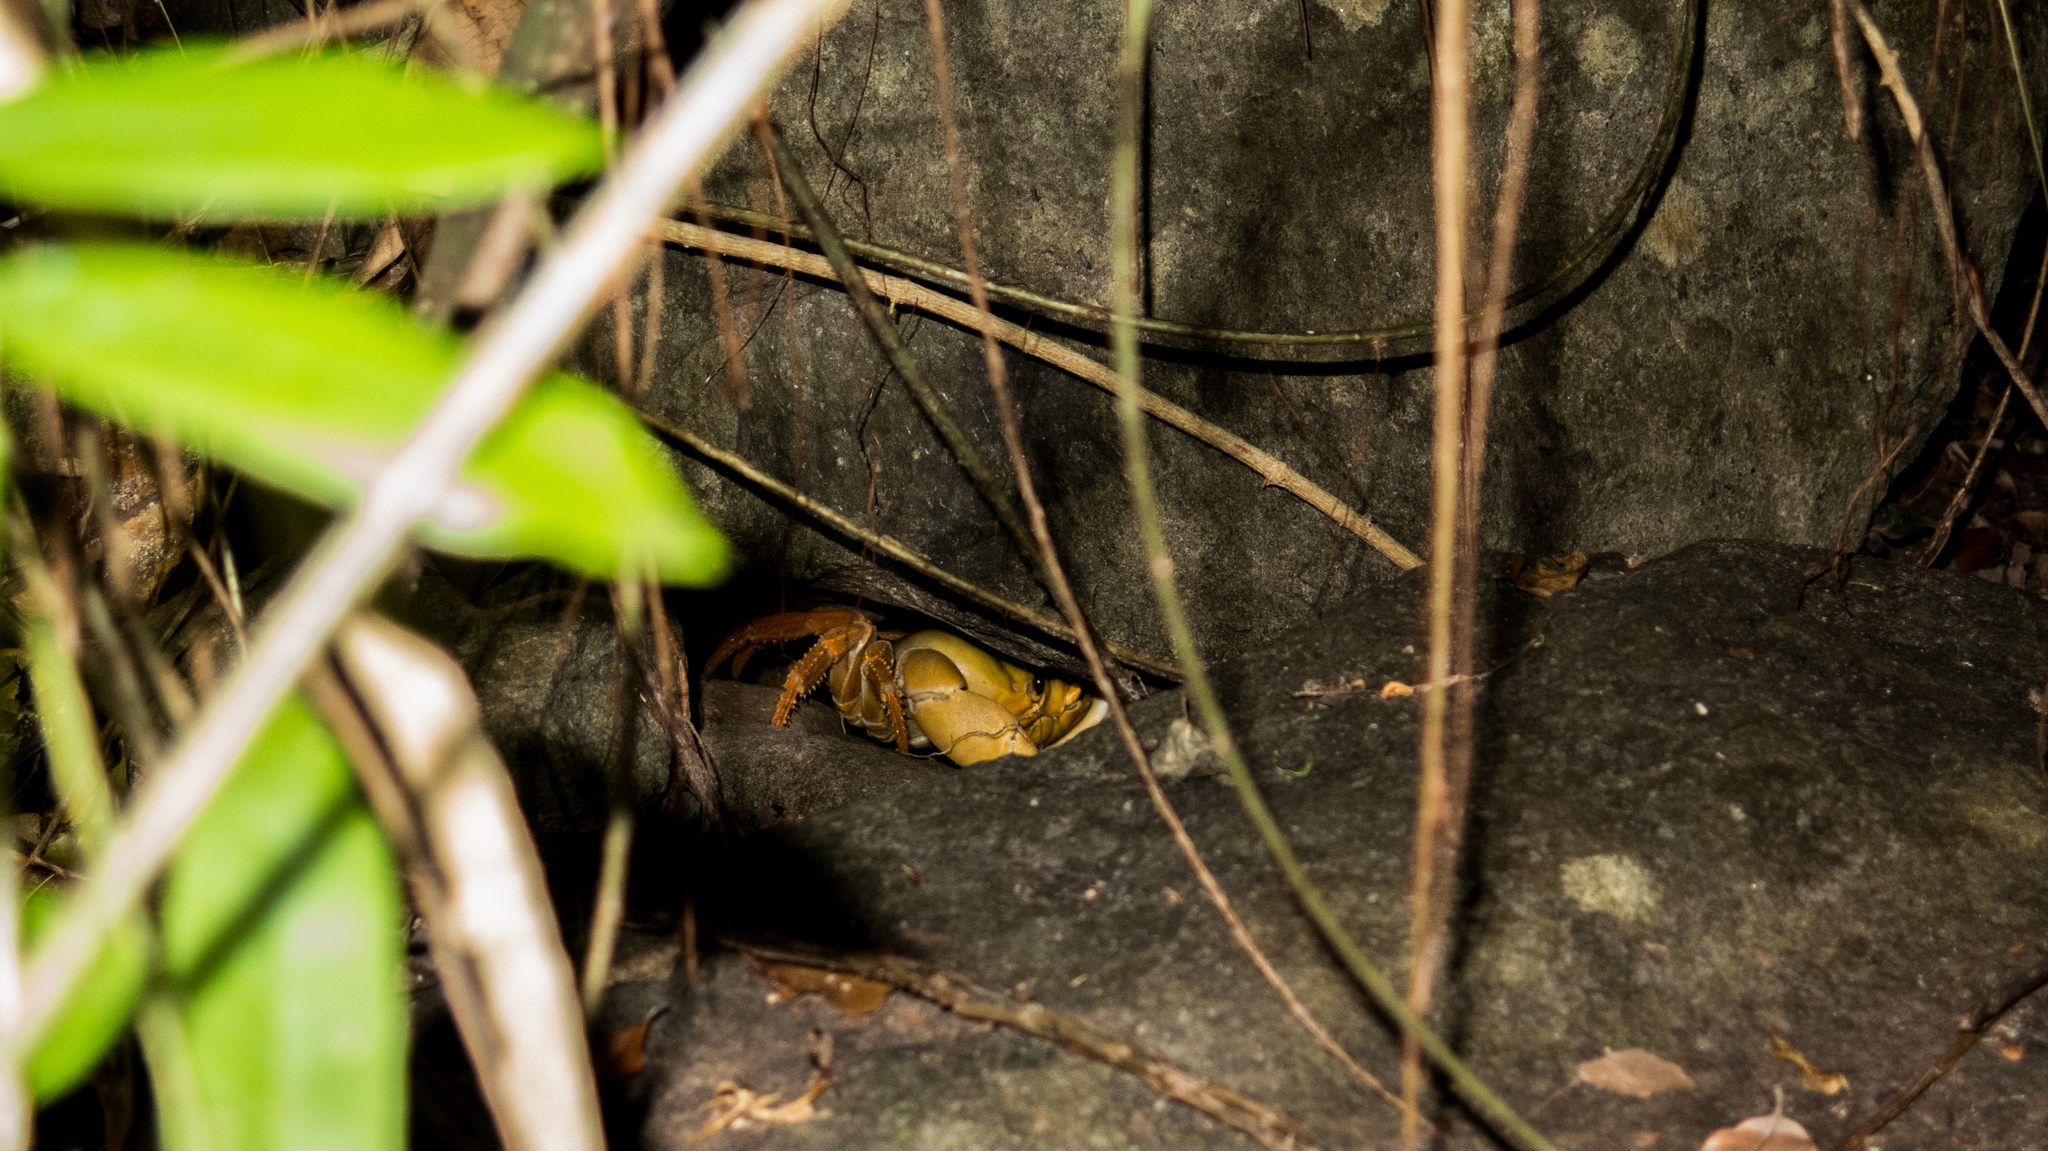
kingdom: Animalia
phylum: Arthropoda
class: Malacostraca
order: Decapoda
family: Gecarcinidae
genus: Johngarthia
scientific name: Johngarthia lagostoma
